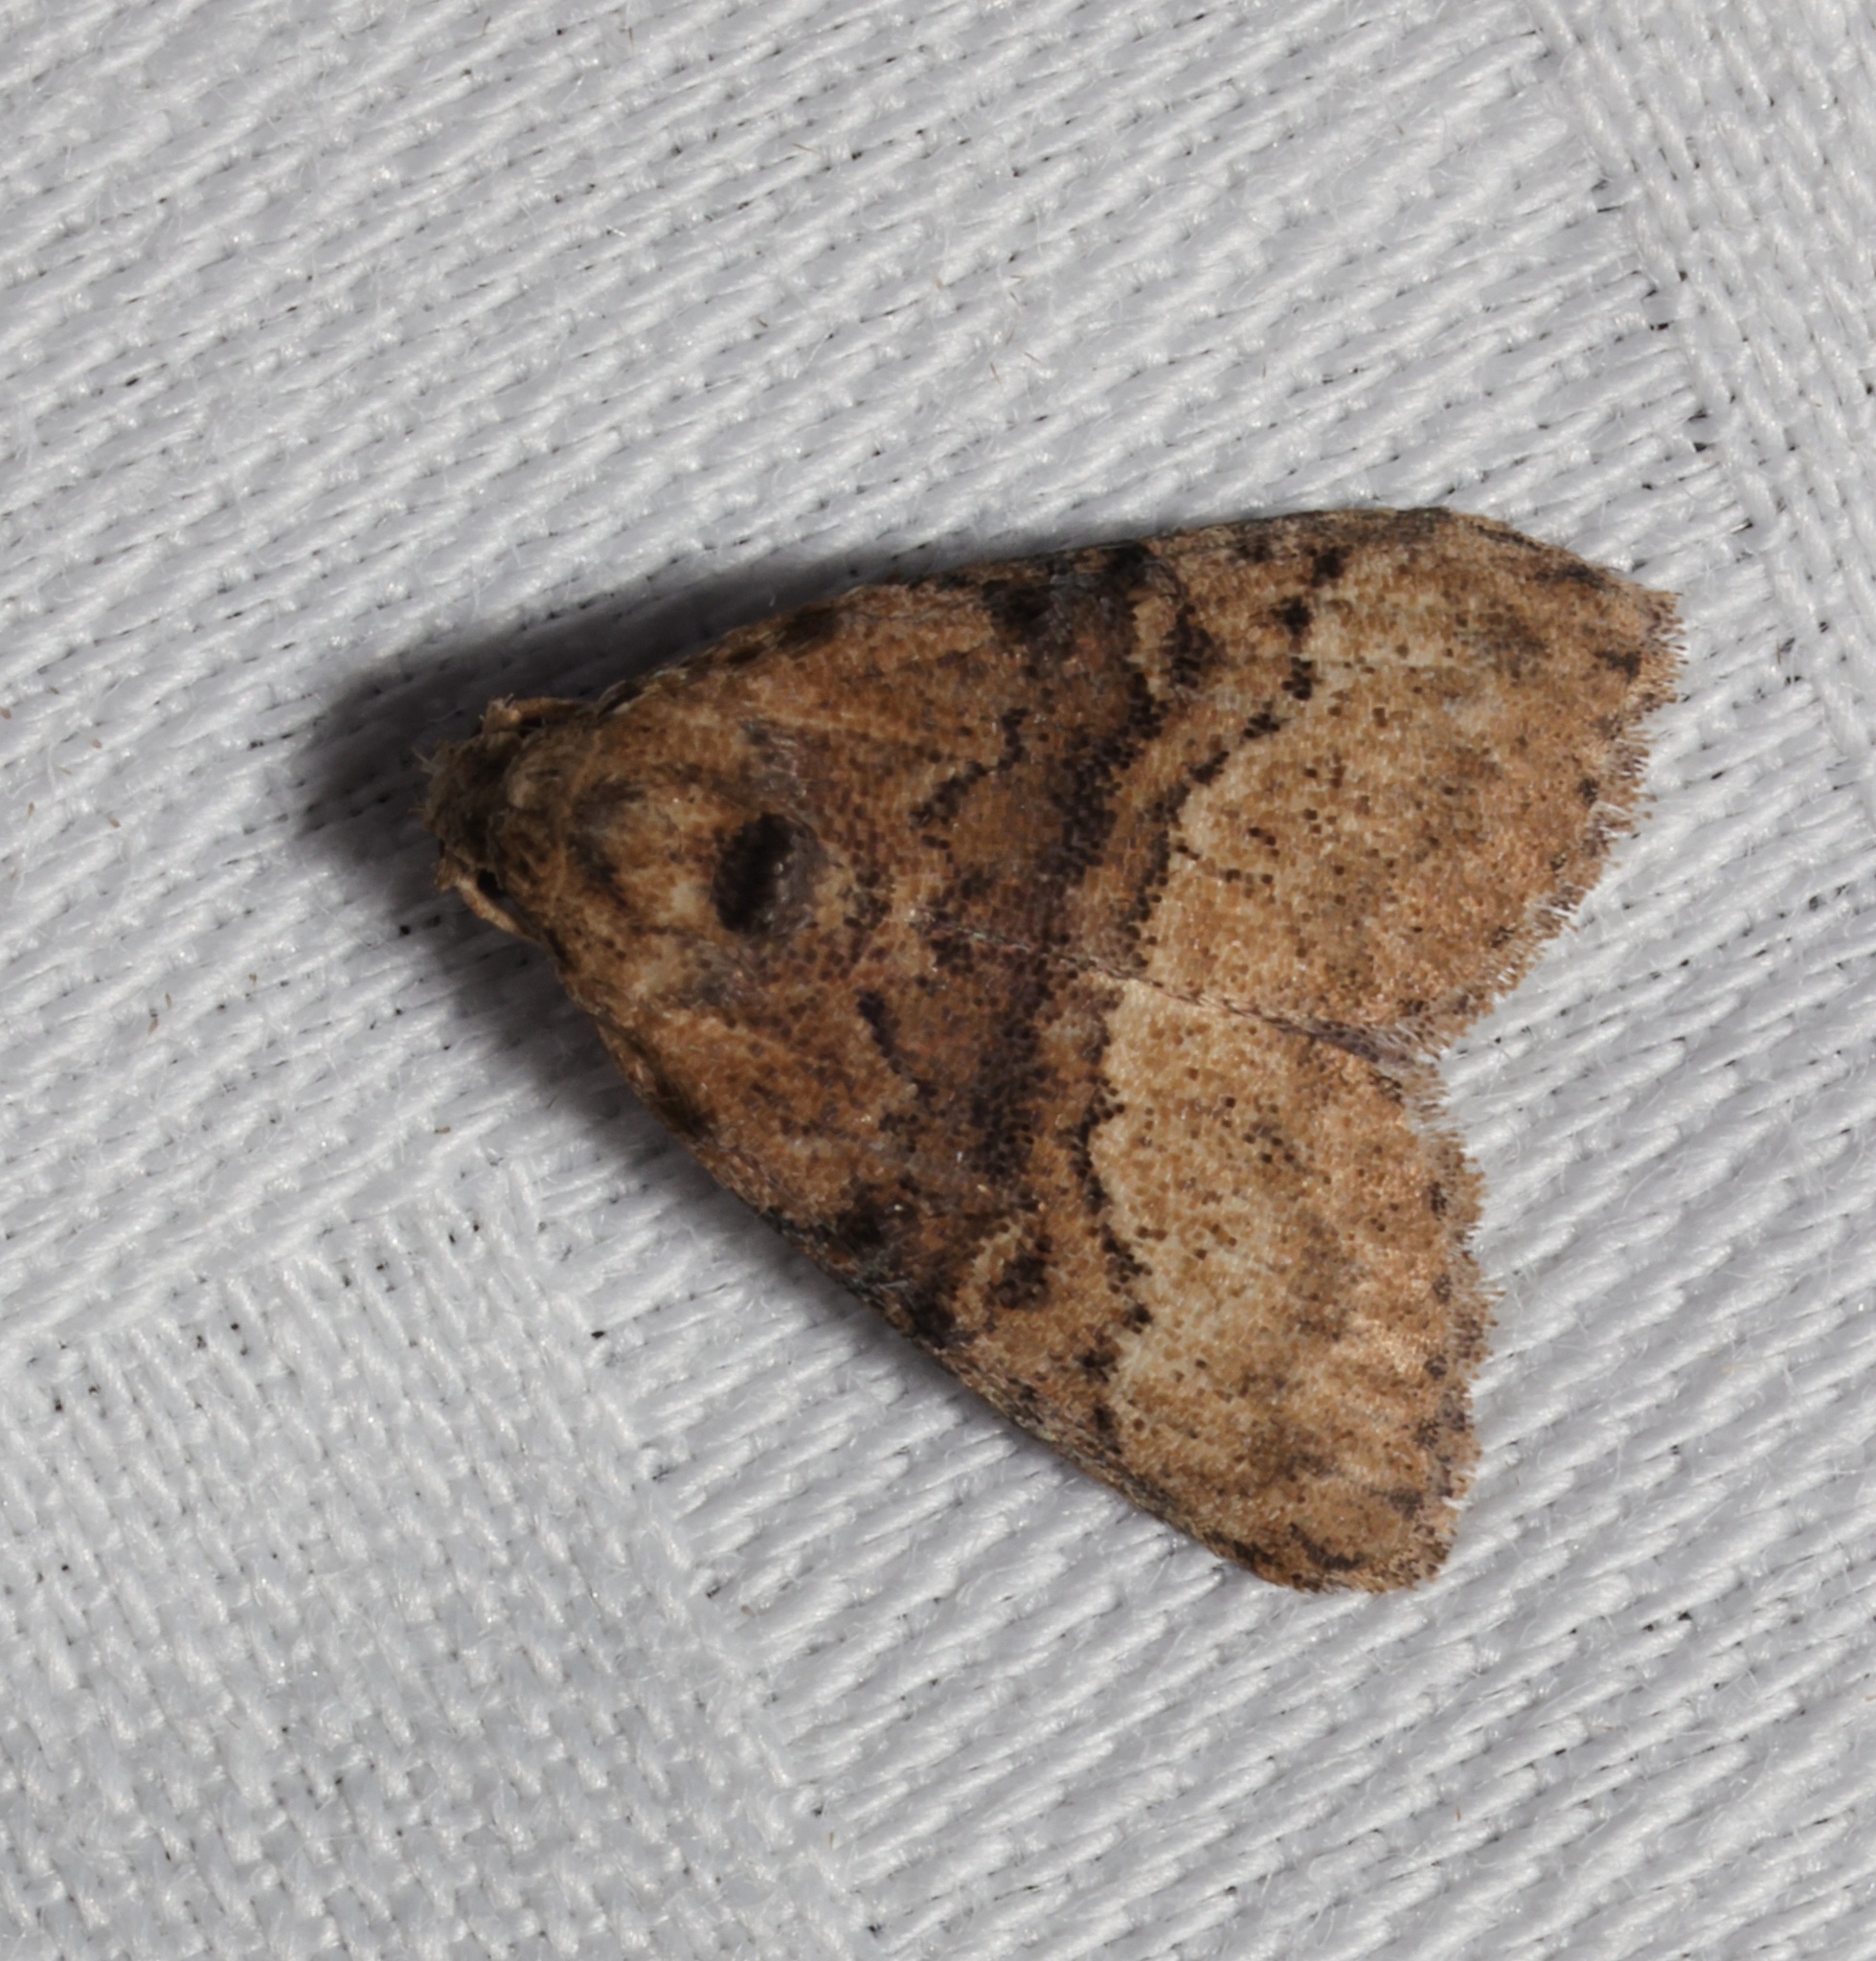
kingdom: Animalia
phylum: Arthropoda
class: Insecta
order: Lepidoptera
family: Nolidae
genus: Meganola
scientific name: Meganola tenebrosa
